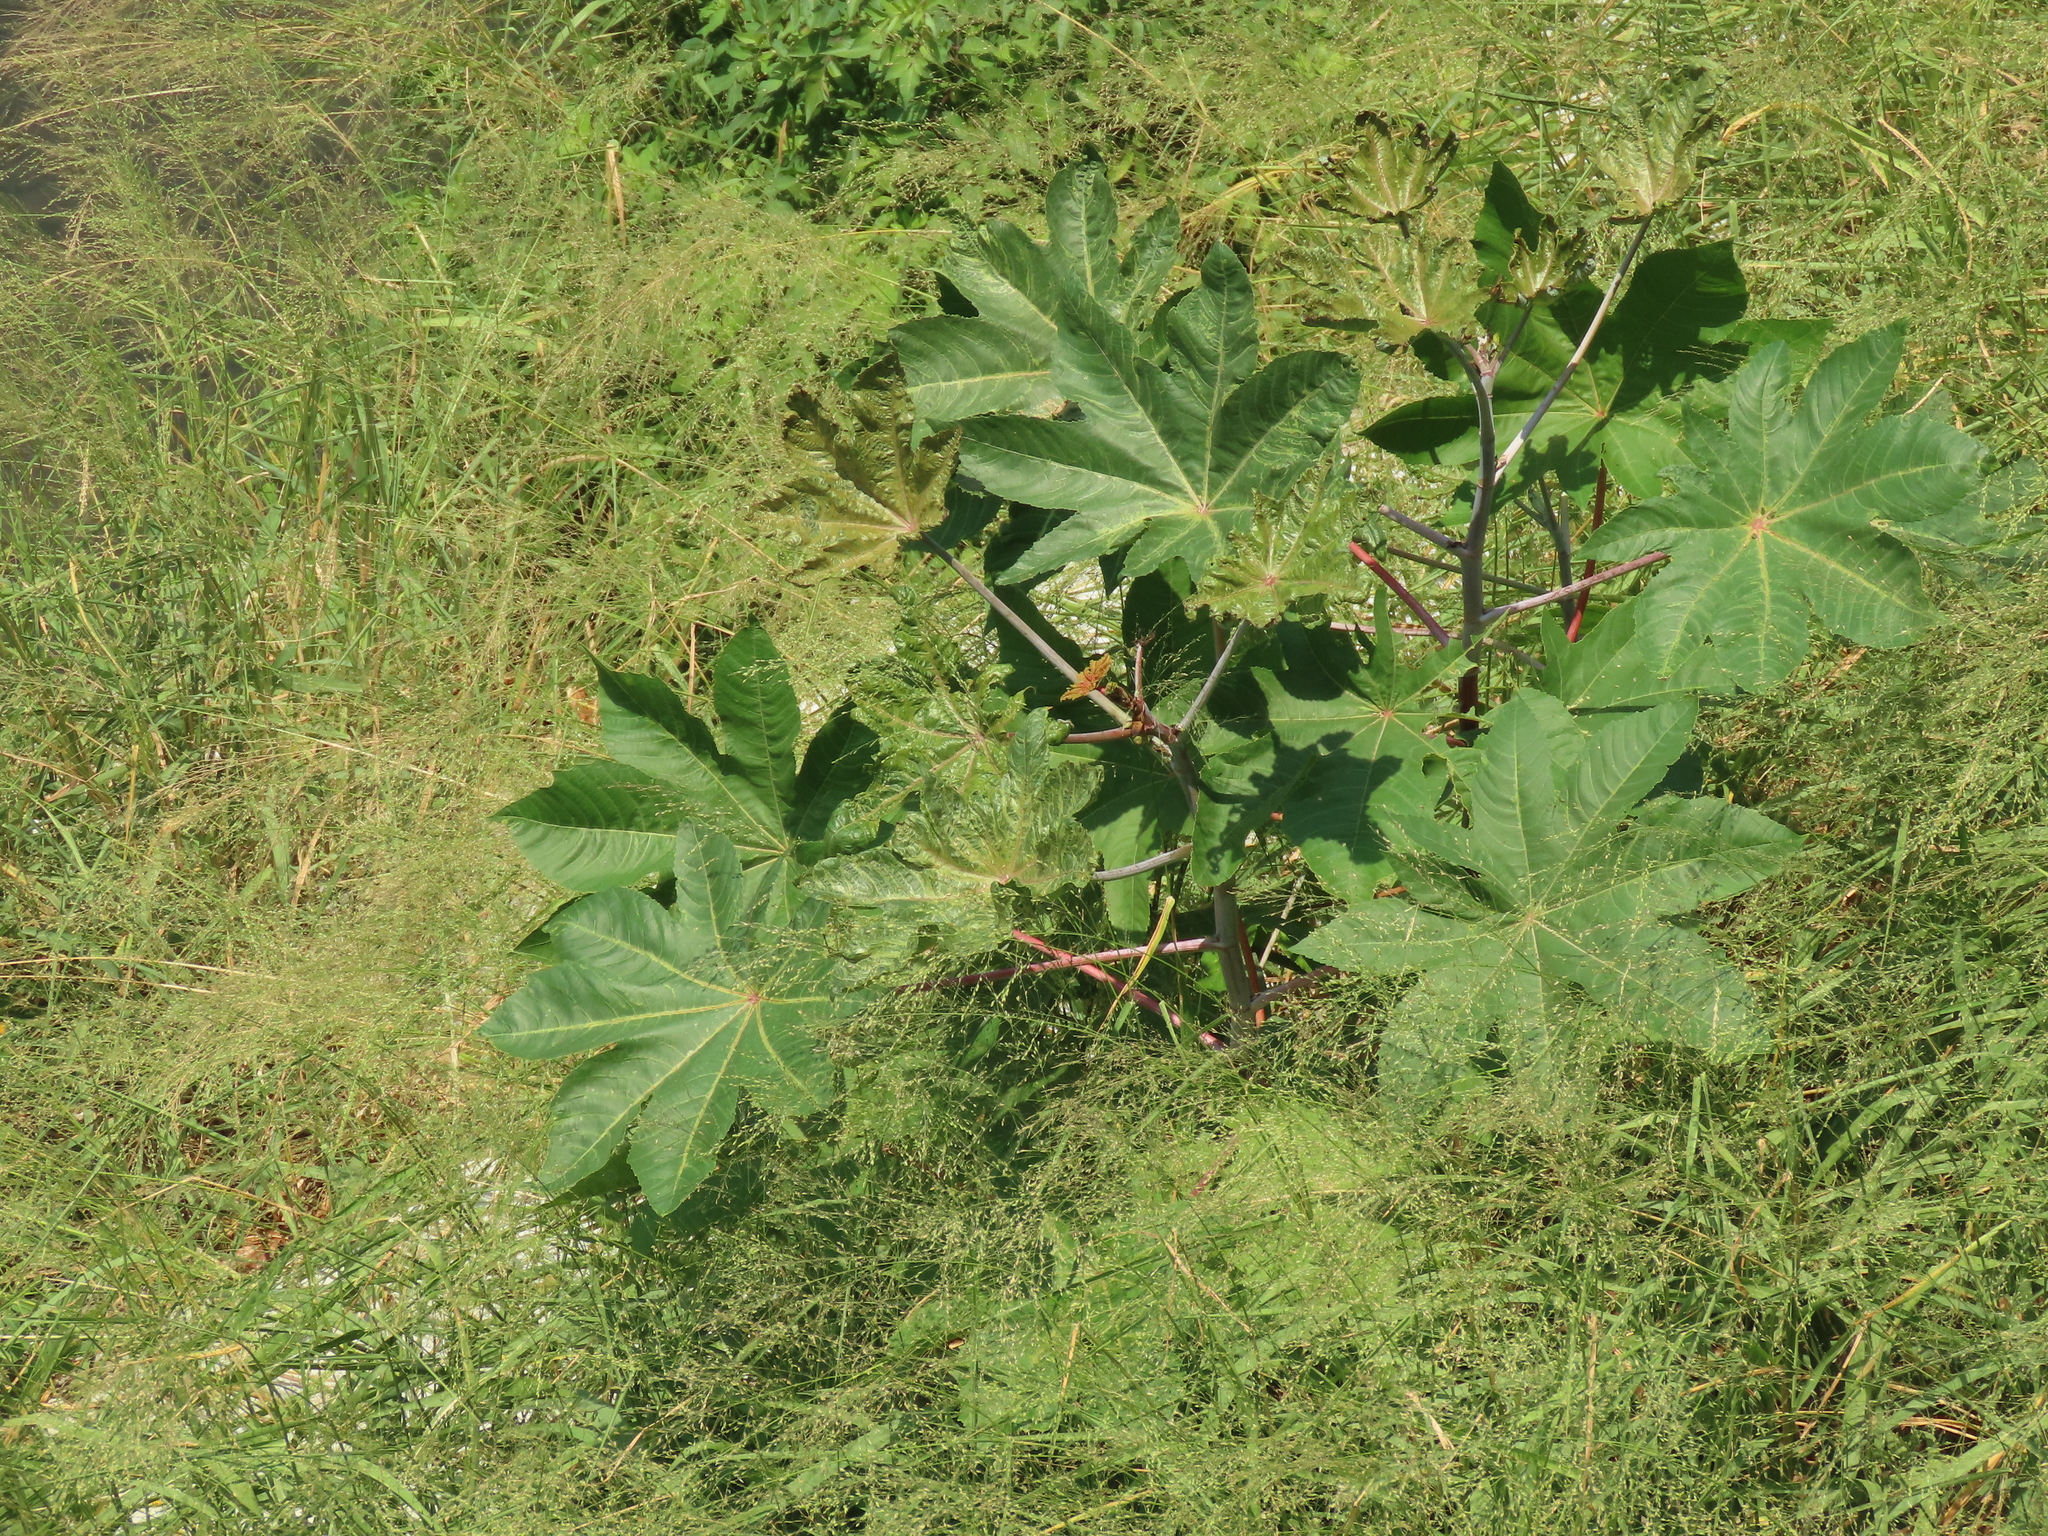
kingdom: Plantae
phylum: Tracheophyta
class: Magnoliopsida
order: Malpighiales
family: Euphorbiaceae
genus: Ricinus
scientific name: Ricinus communis
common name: Castor-oil-plant
